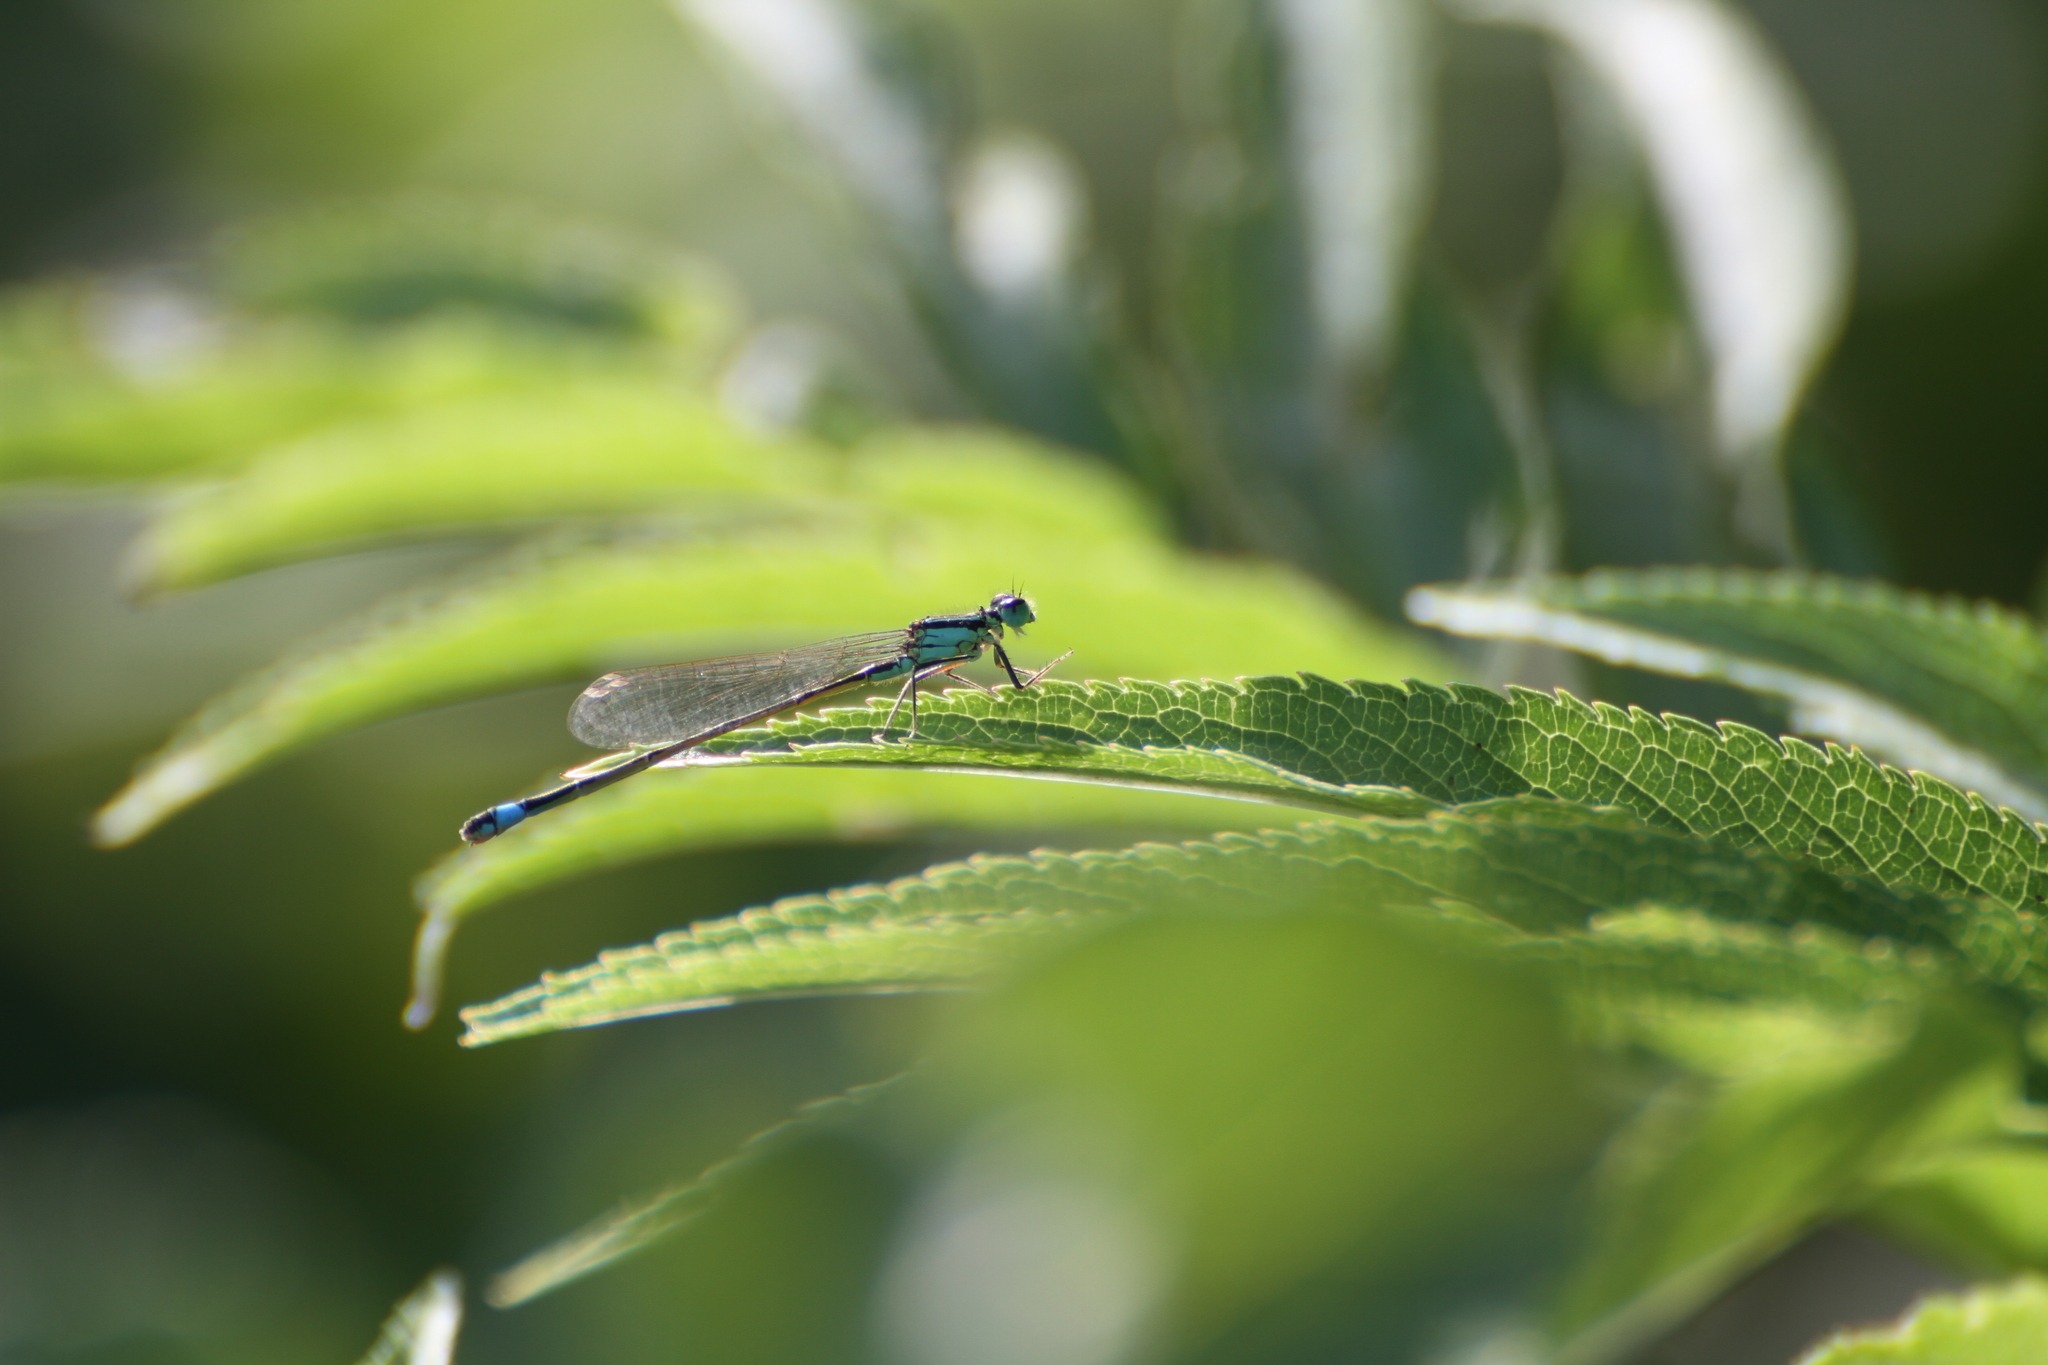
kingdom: Animalia
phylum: Arthropoda
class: Insecta
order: Odonata
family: Coenagrionidae
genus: Ischnura
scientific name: Ischnura elegans
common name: Blue-tailed damselfly
